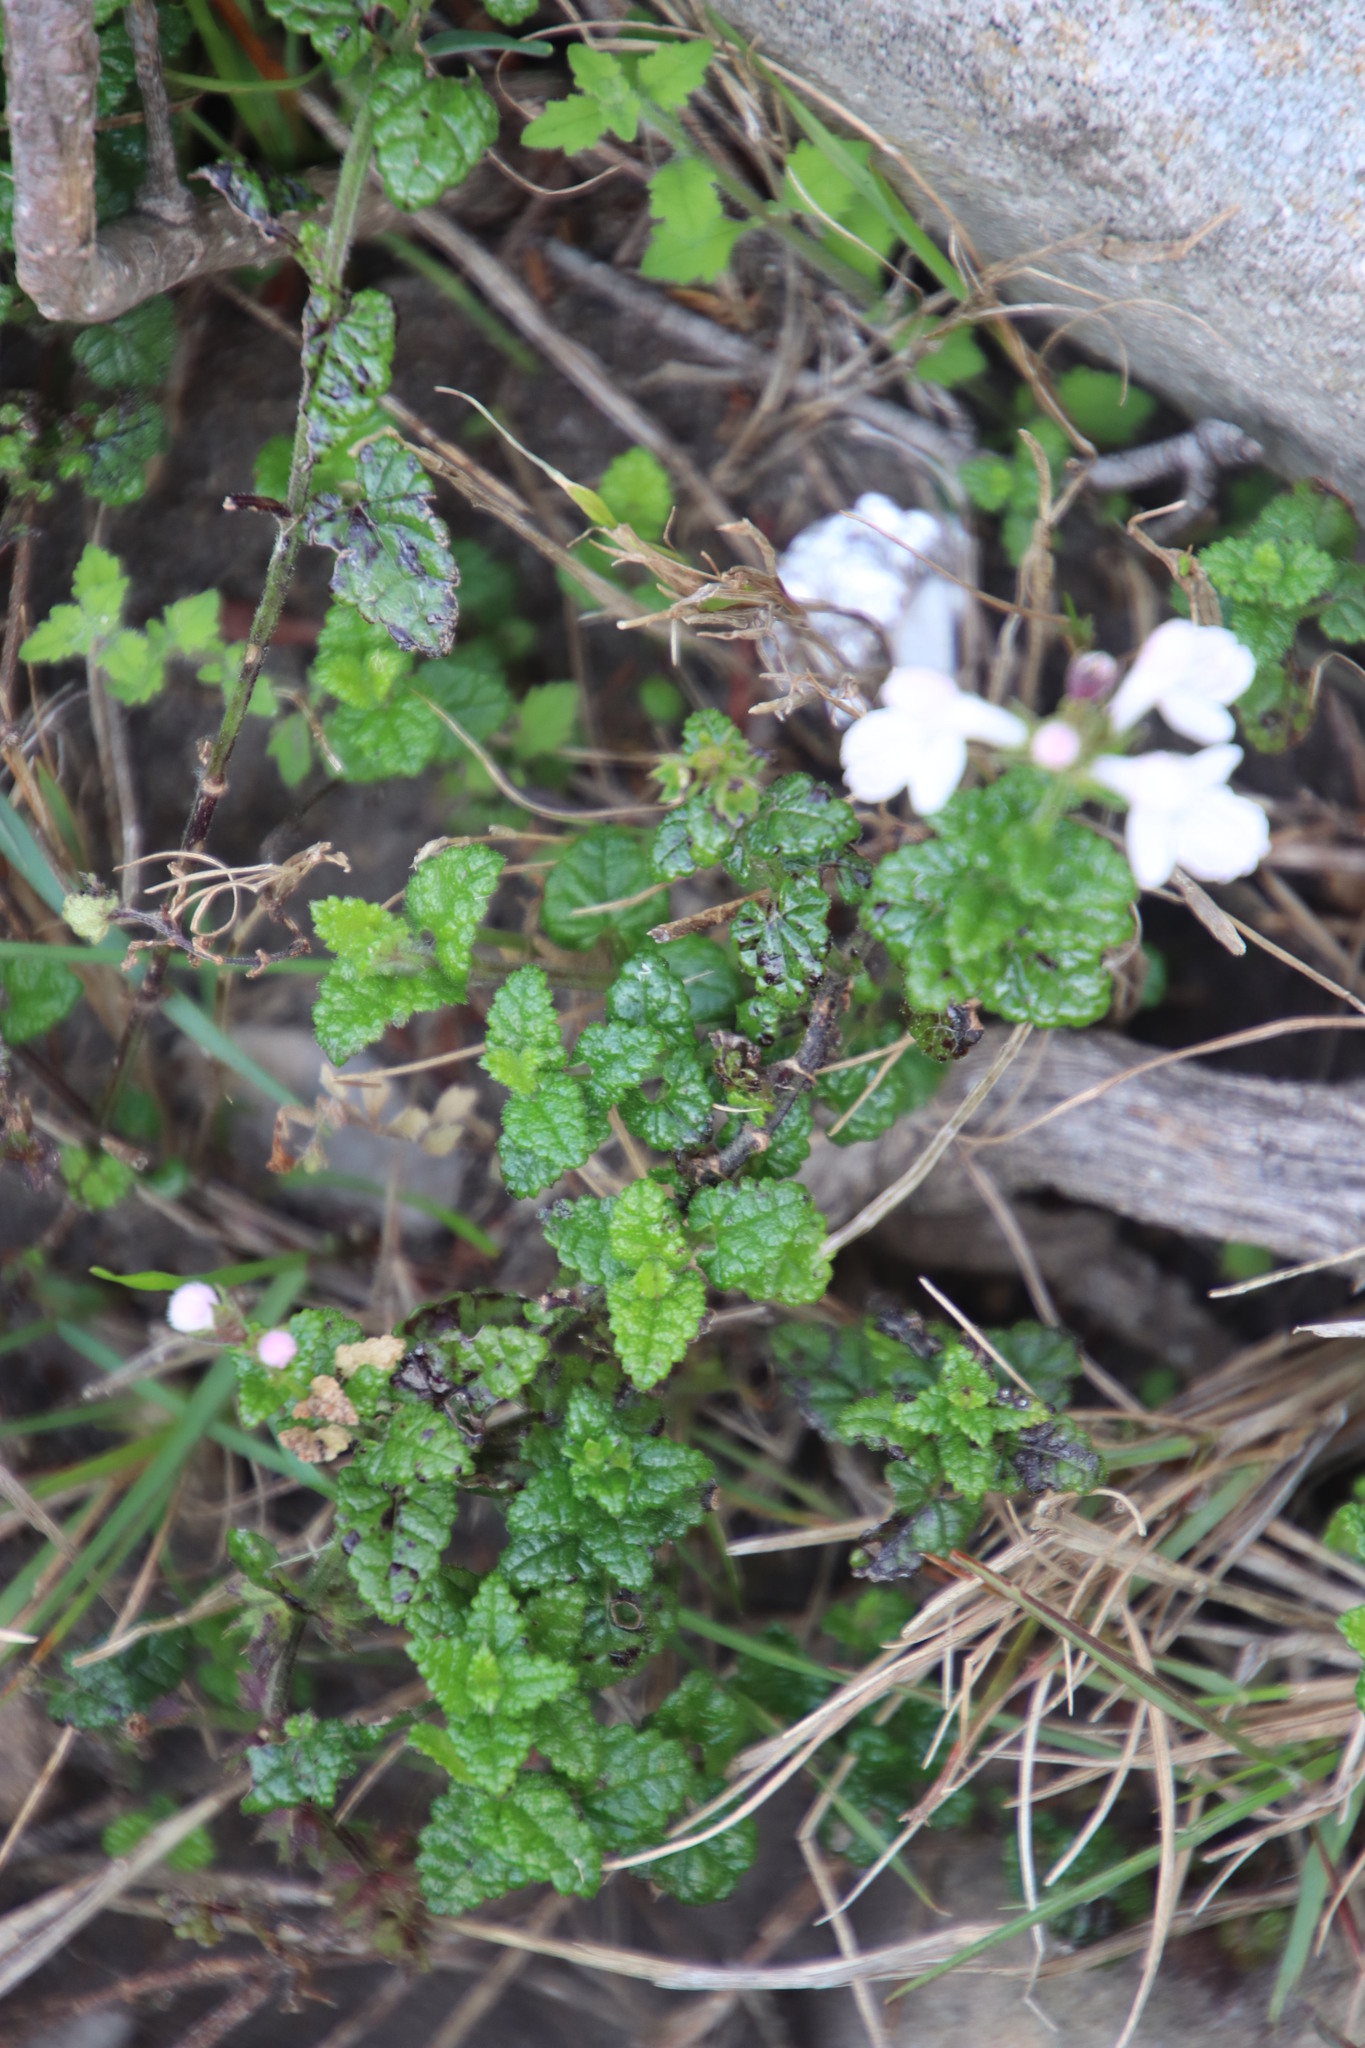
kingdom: Plantae
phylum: Tracheophyta
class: Magnoliopsida
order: Lamiales
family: Lamiaceae
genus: Stachys
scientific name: Stachys aethiopica
